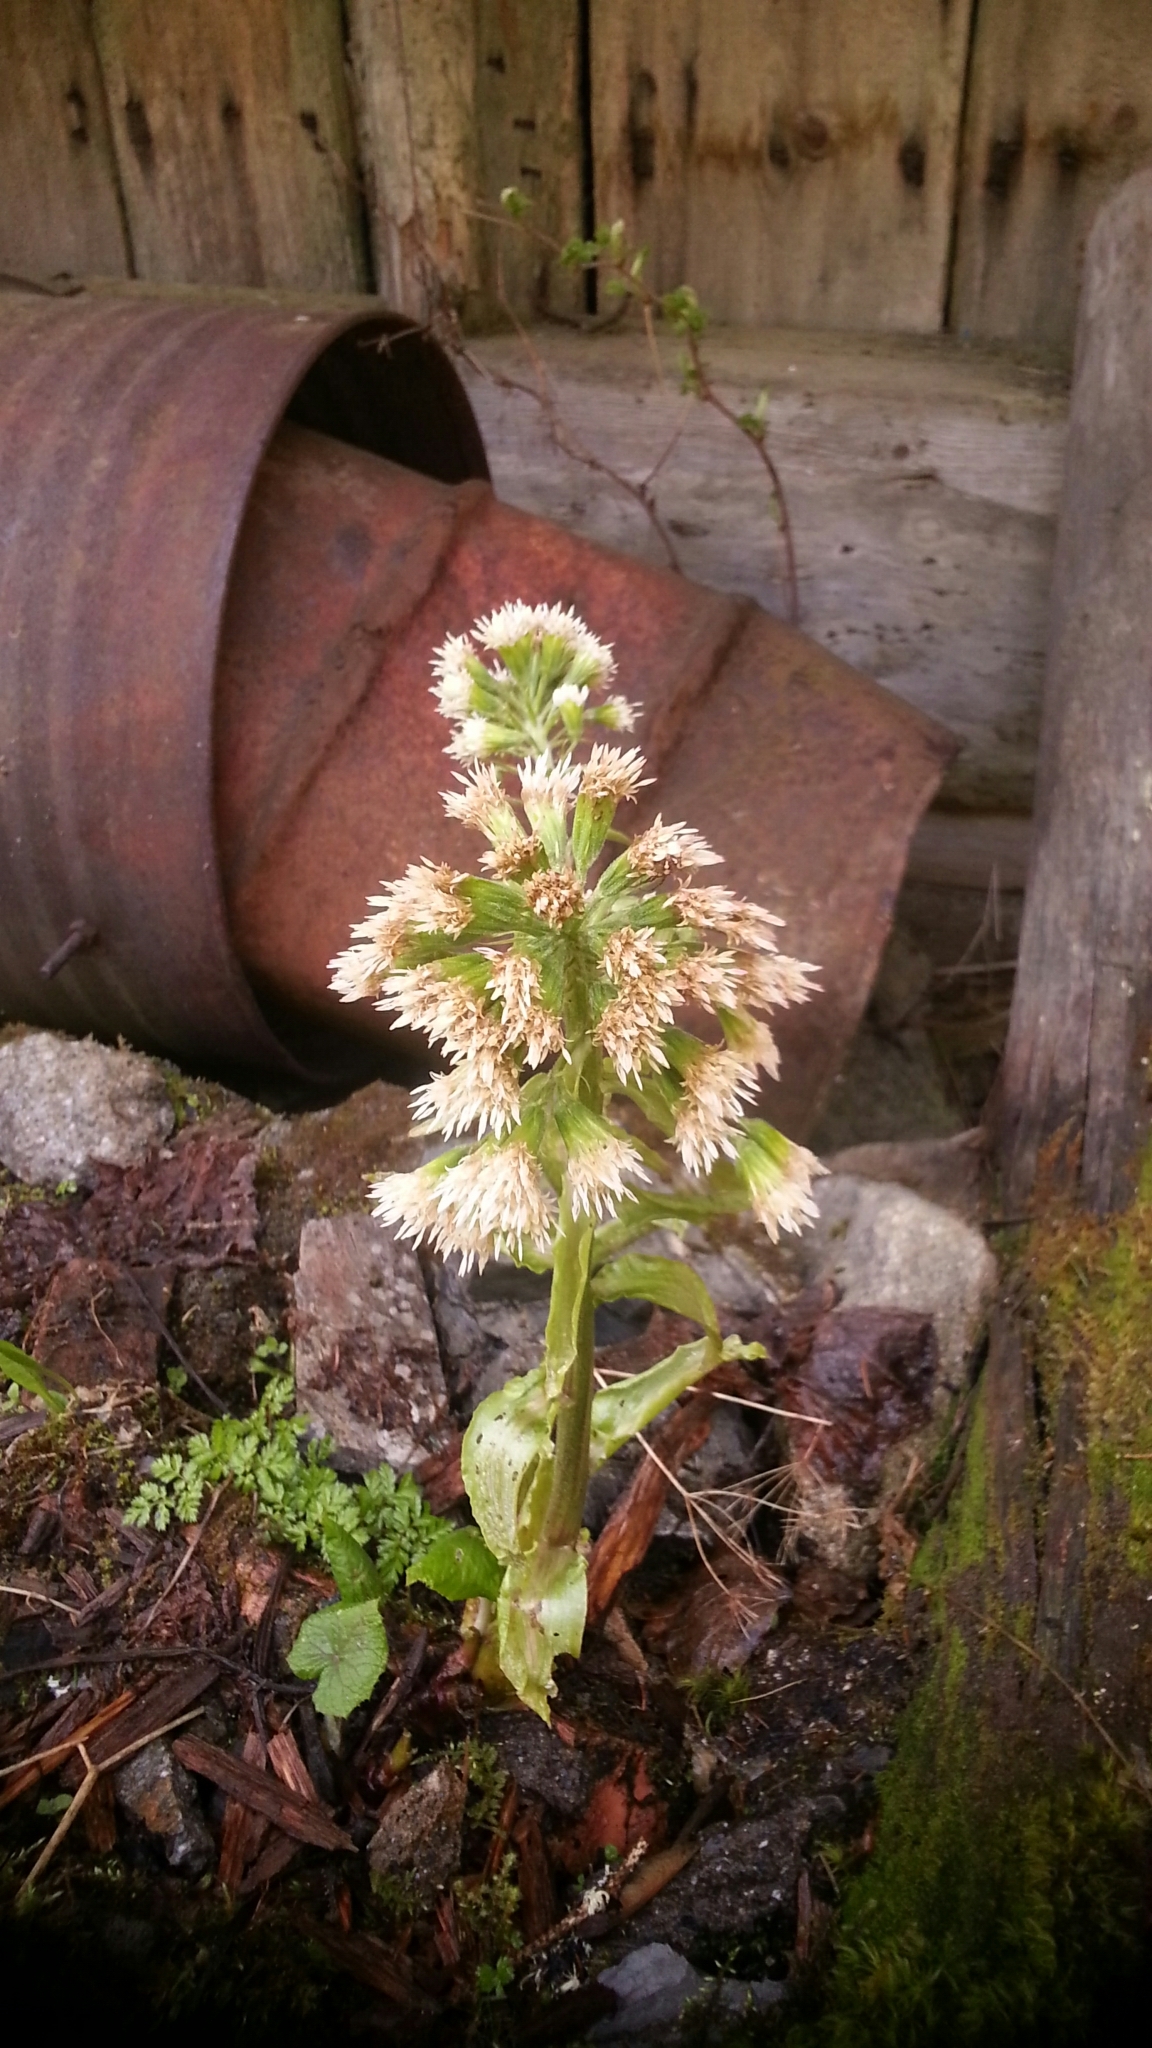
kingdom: Plantae
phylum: Tracheophyta
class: Magnoliopsida
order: Asterales
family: Asteraceae
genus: Petasites
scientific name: Petasites albus
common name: White butterbur
